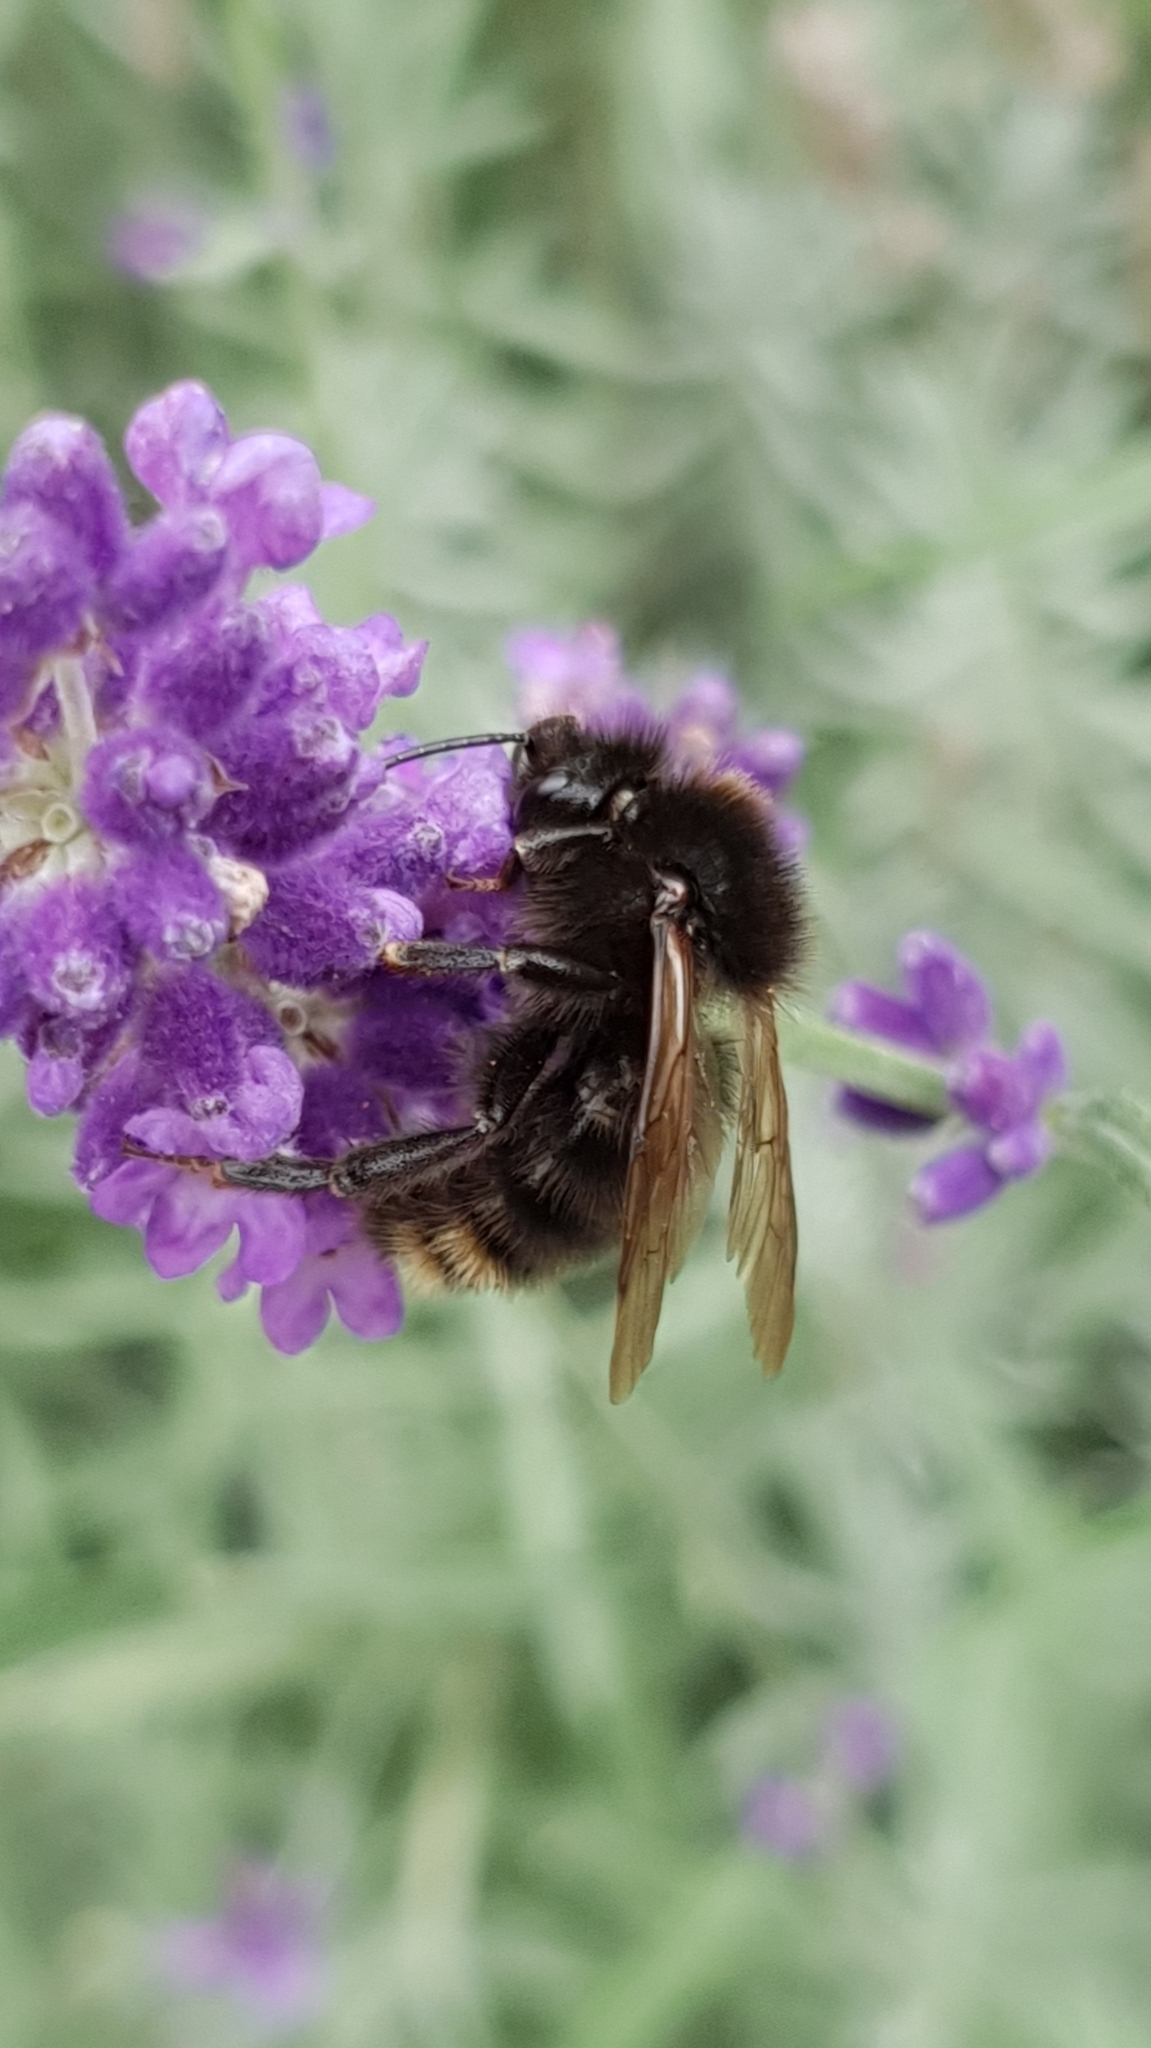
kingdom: Animalia
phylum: Arthropoda
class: Insecta
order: Hymenoptera
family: Apidae
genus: Bombus
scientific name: Bombus rupestris
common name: Hill cuckoo-bee
